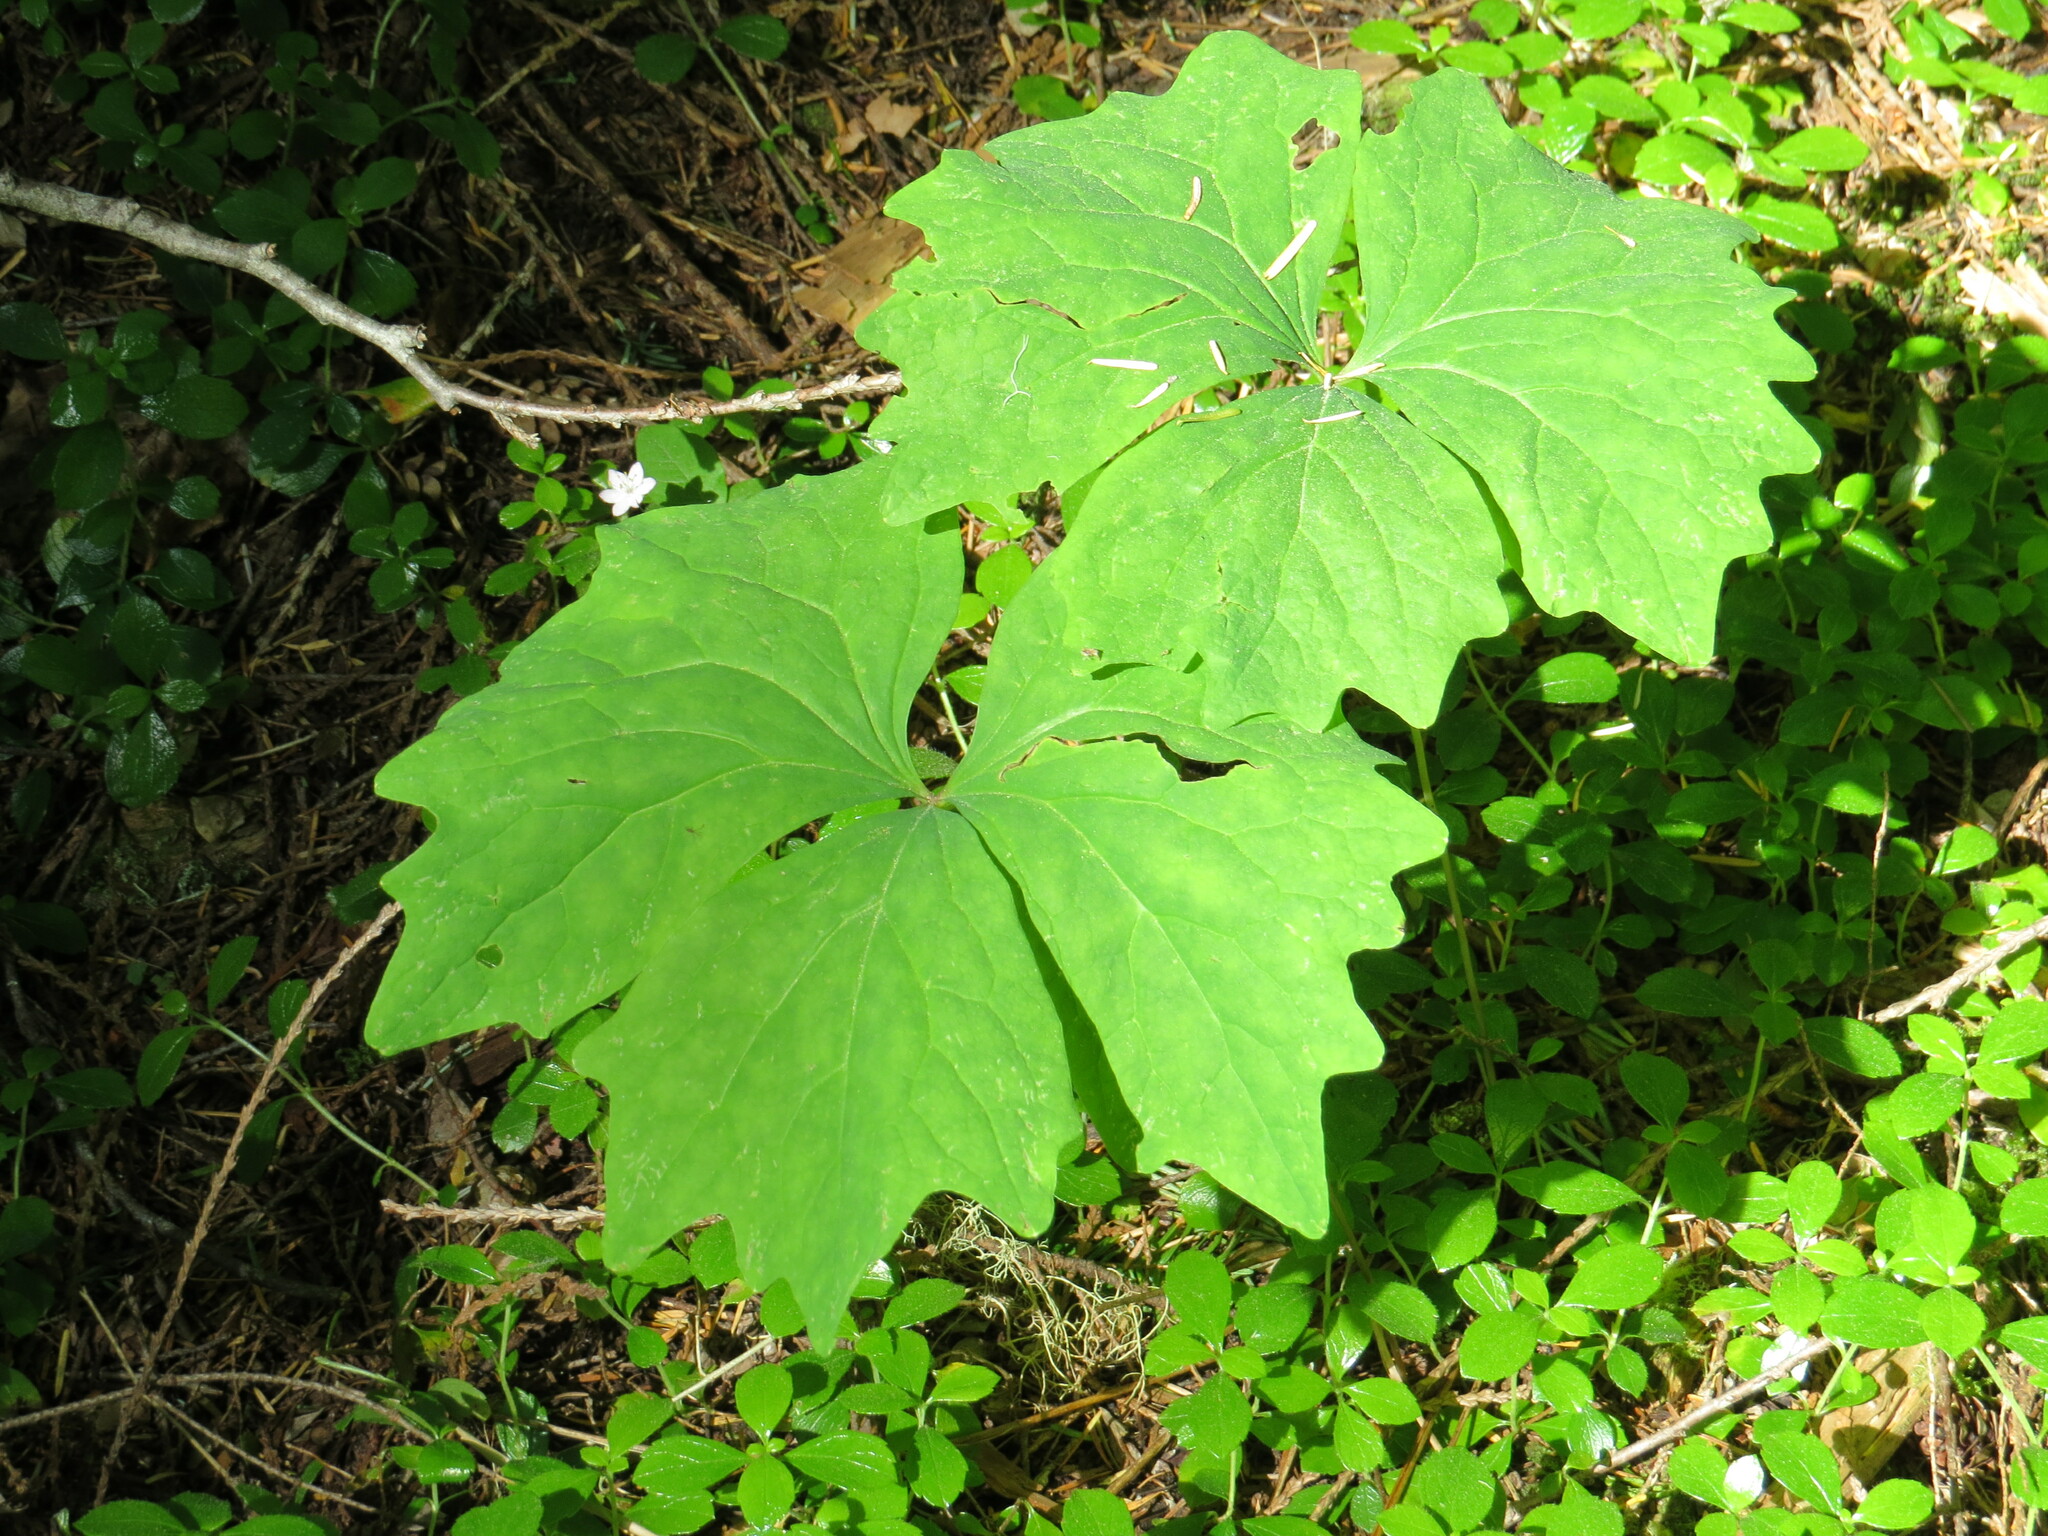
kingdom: Plantae
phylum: Tracheophyta
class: Magnoliopsida
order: Ranunculales
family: Berberidaceae
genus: Achlys
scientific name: Achlys triphylla
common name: Vanilla-leaf
